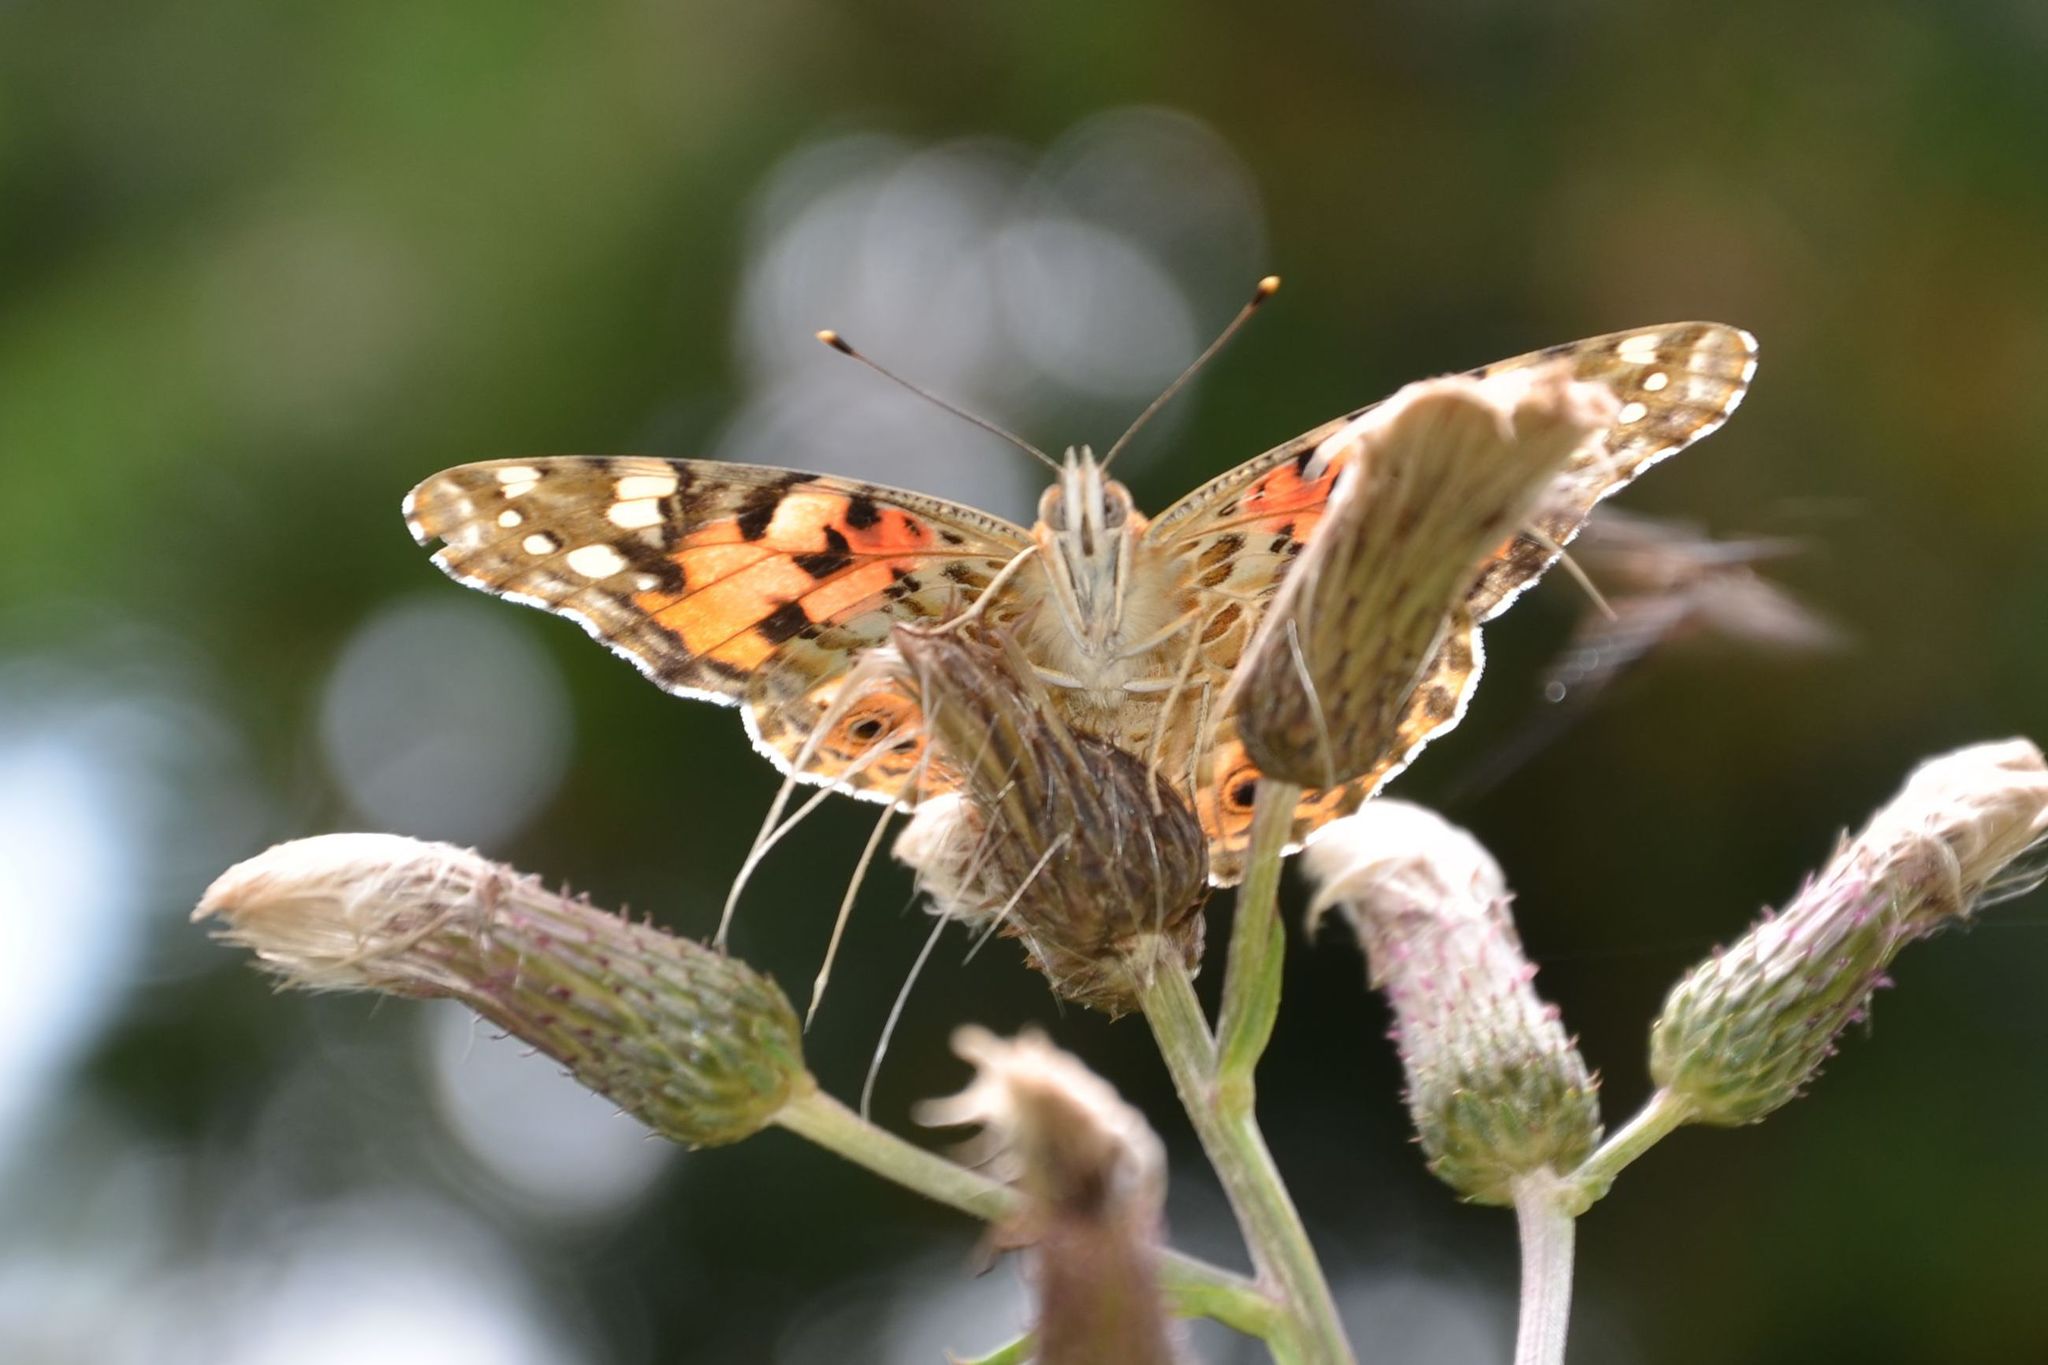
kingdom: Animalia
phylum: Arthropoda
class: Insecta
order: Lepidoptera
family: Nymphalidae
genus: Vanessa
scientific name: Vanessa cardui
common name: Painted lady
